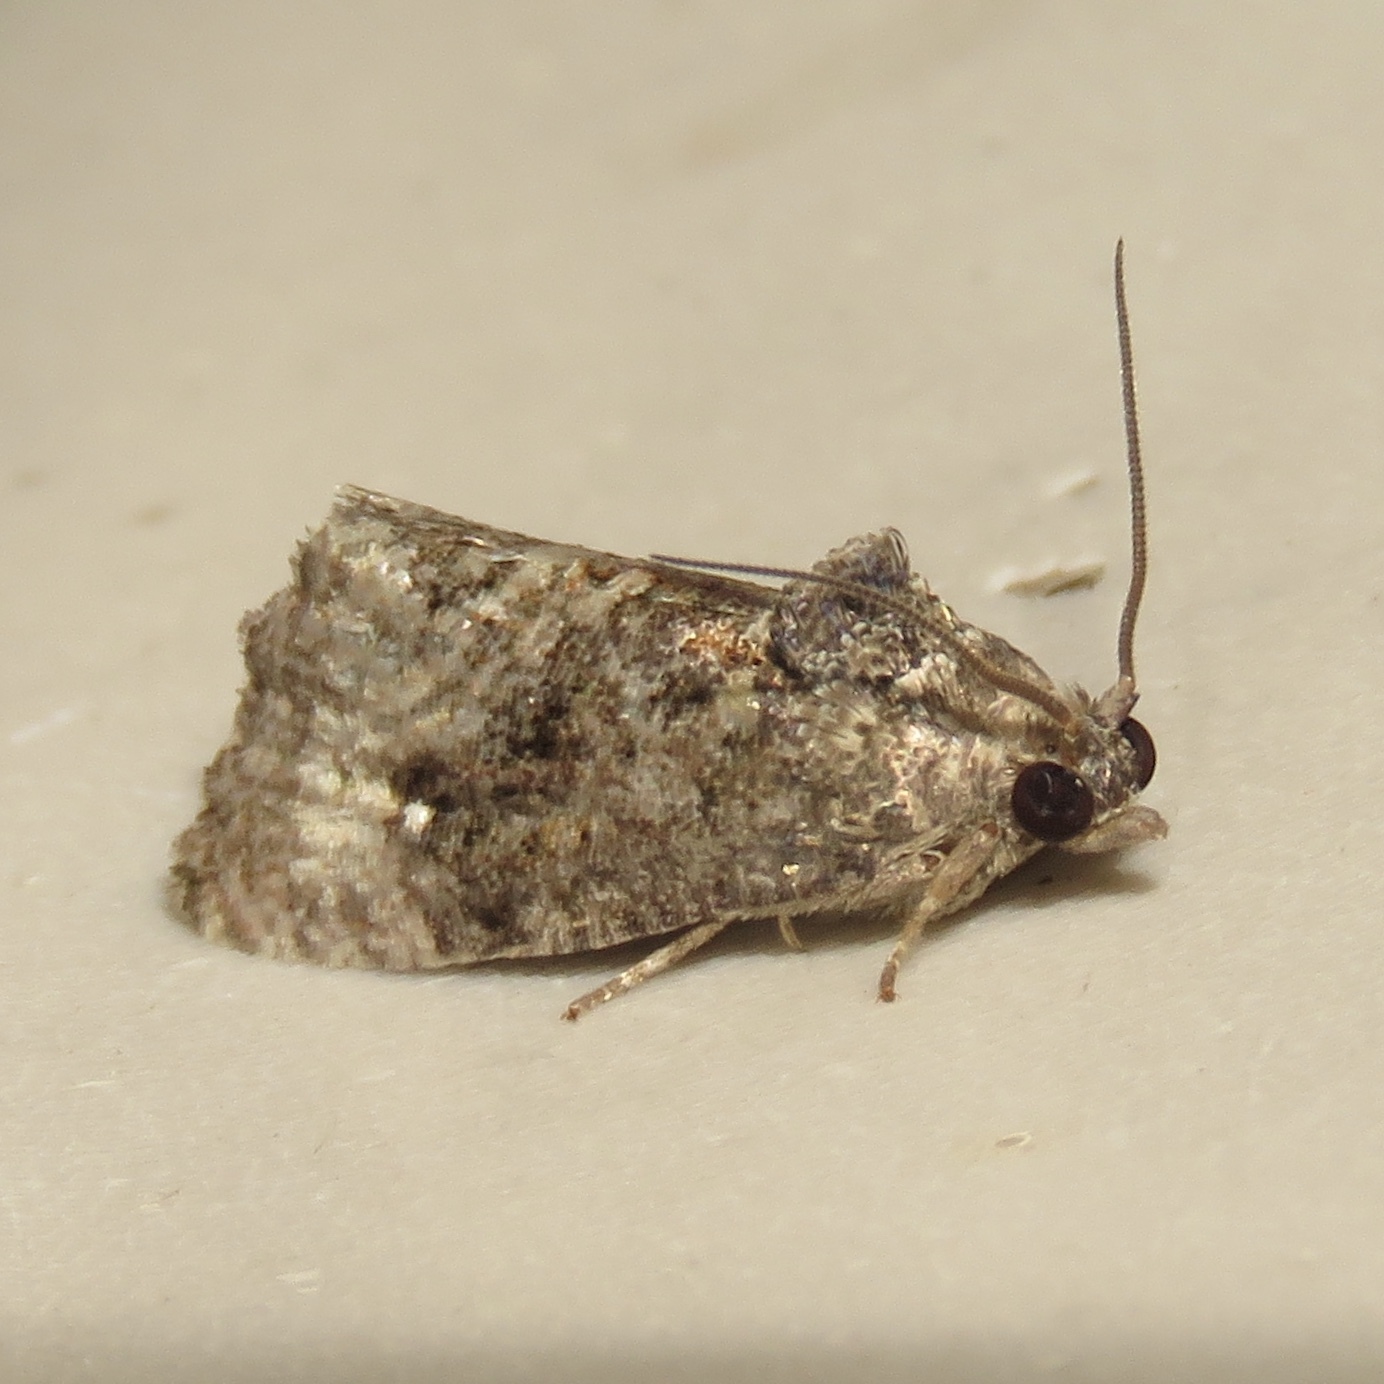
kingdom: Animalia
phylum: Arthropoda
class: Insecta
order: Lepidoptera
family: Tortricidae
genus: Gymnandrosoma
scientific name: Gymnandrosoma punctidiscanum
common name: Dotted ecdytolopha moth
